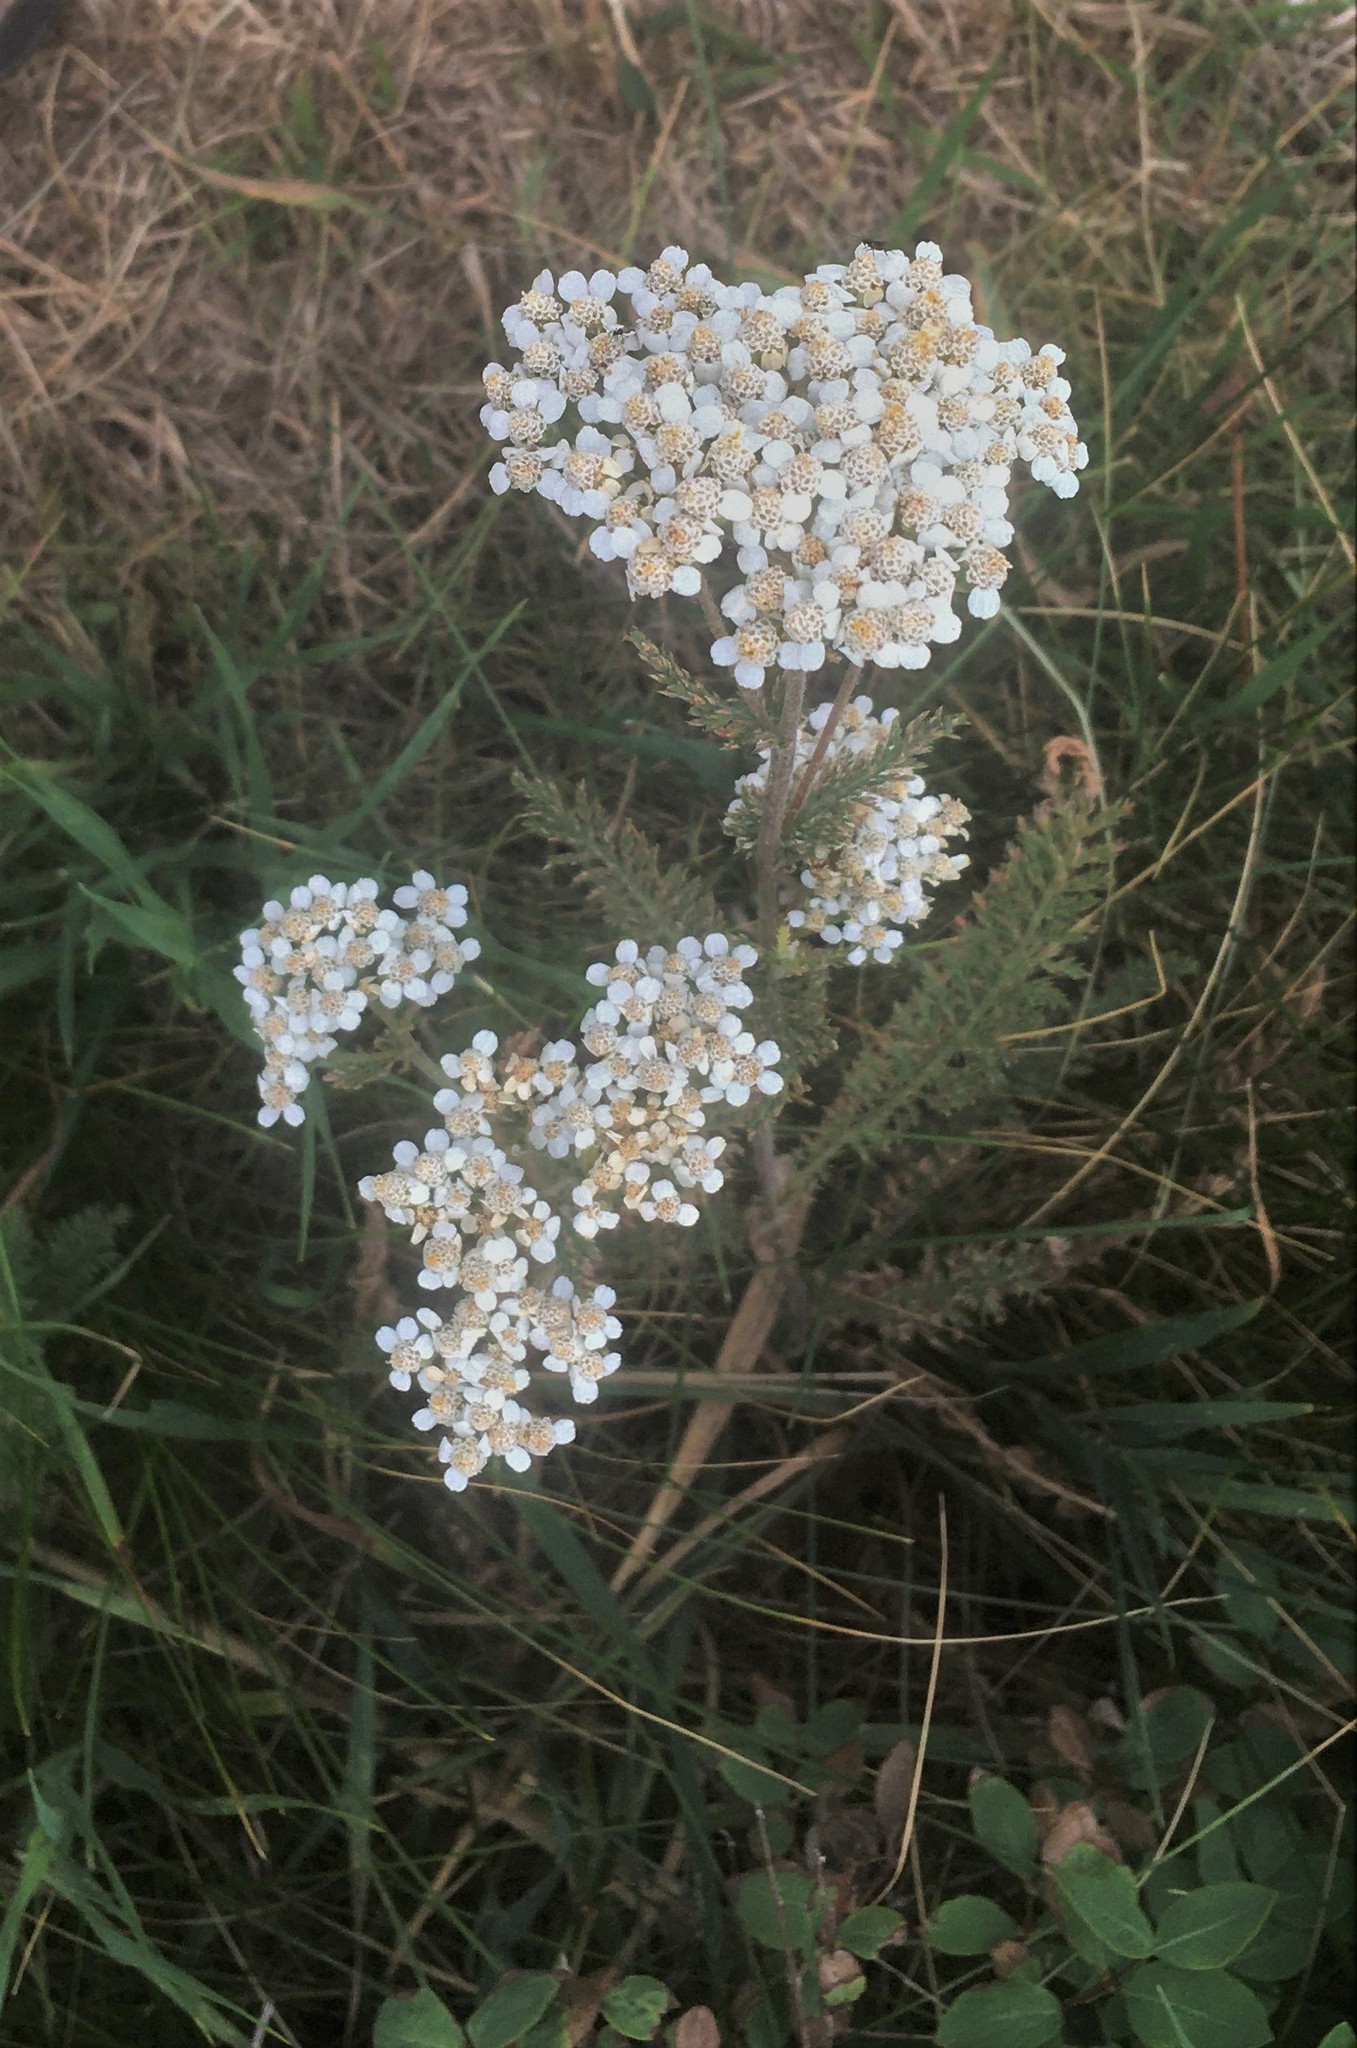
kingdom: Plantae
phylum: Tracheophyta
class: Magnoliopsida
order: Asterales
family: Asteraceae
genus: Achillea
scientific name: Achillea millefolium
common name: Yarrow
